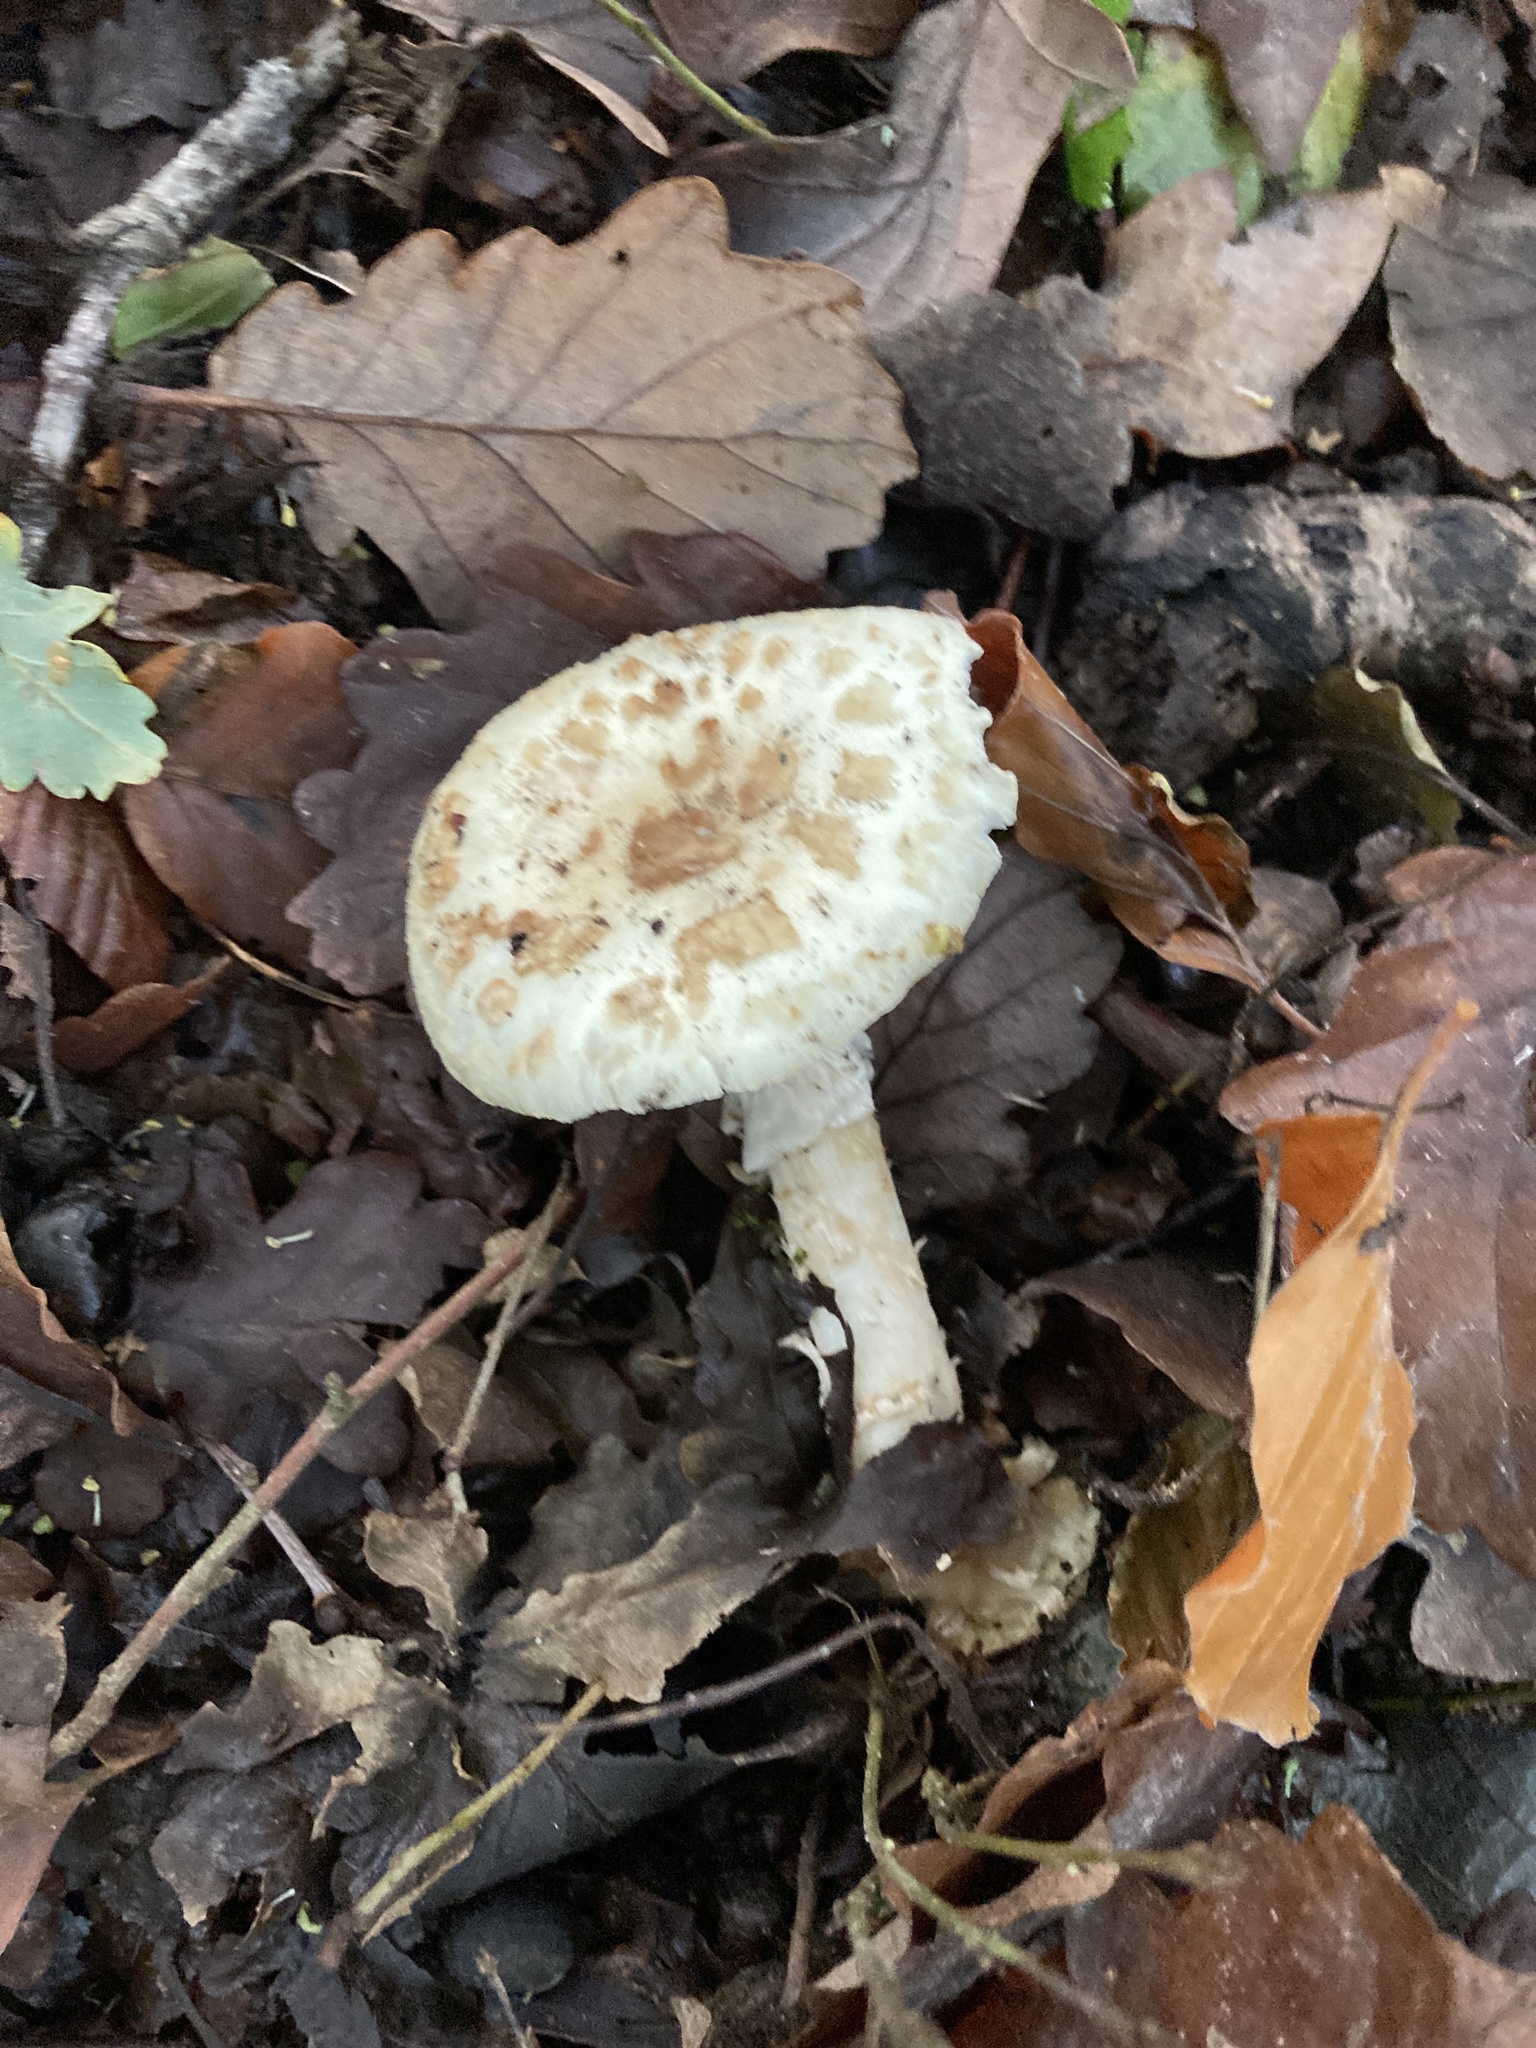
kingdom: Fungi
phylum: Basidiomycota
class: Agaricomycetes
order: Agaricales
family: Amanitaceae
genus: Amanita
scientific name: Amanita citrina
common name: False death-cap
